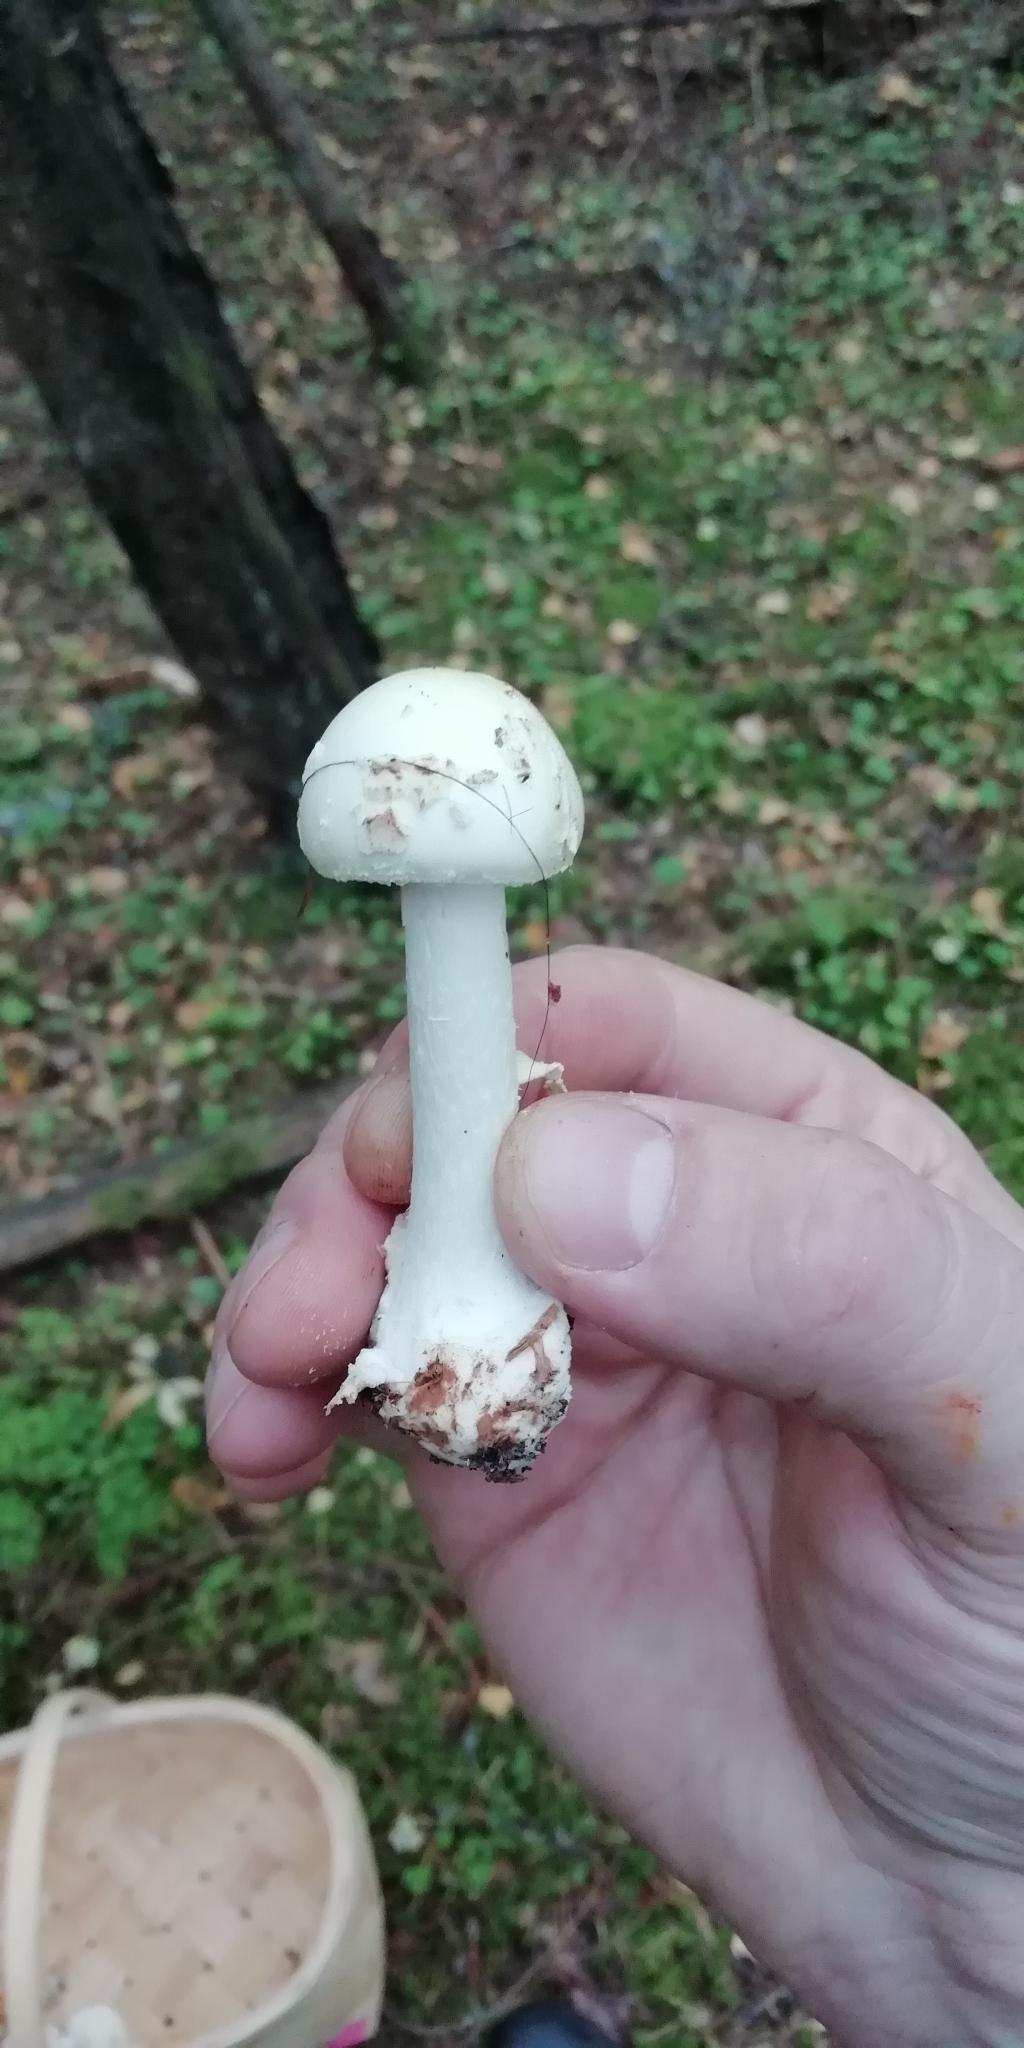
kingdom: Fungi
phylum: Basidiomycota
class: Agaricomycetes
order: Agaricales
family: Amanitaceae
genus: Amanita
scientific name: Amanita citrina
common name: False death-cap
